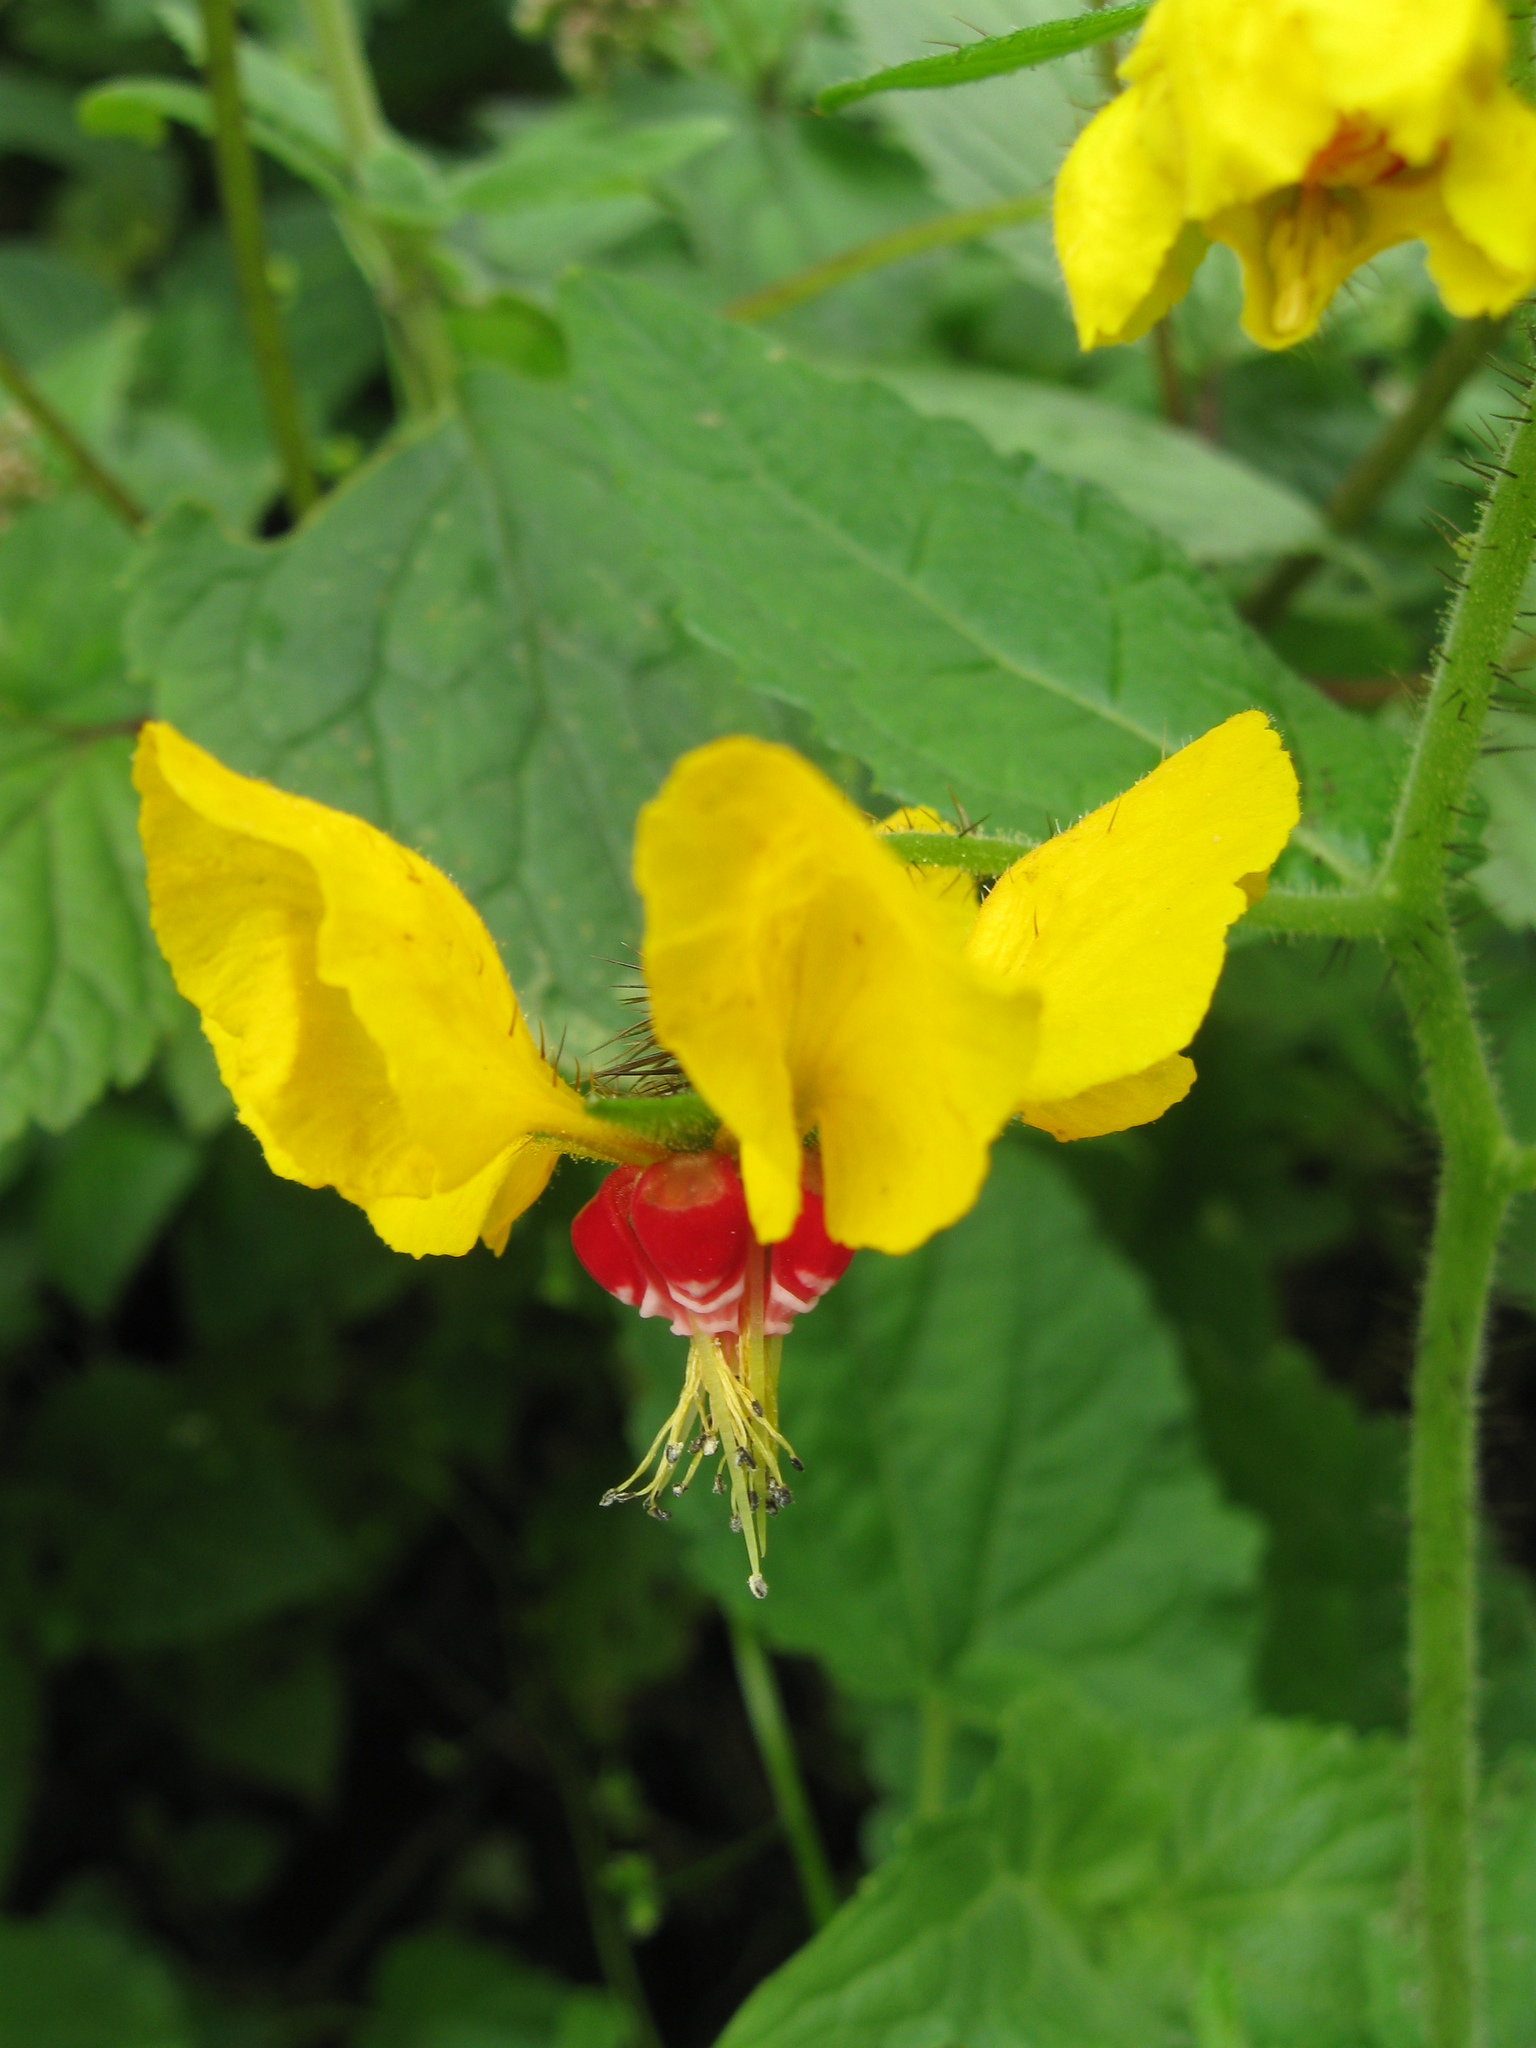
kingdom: Plantae
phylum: Tracheophyta
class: Magnoliopsida
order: Cornales
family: Loasaceae
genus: Nasa
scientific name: Nasa solaria
